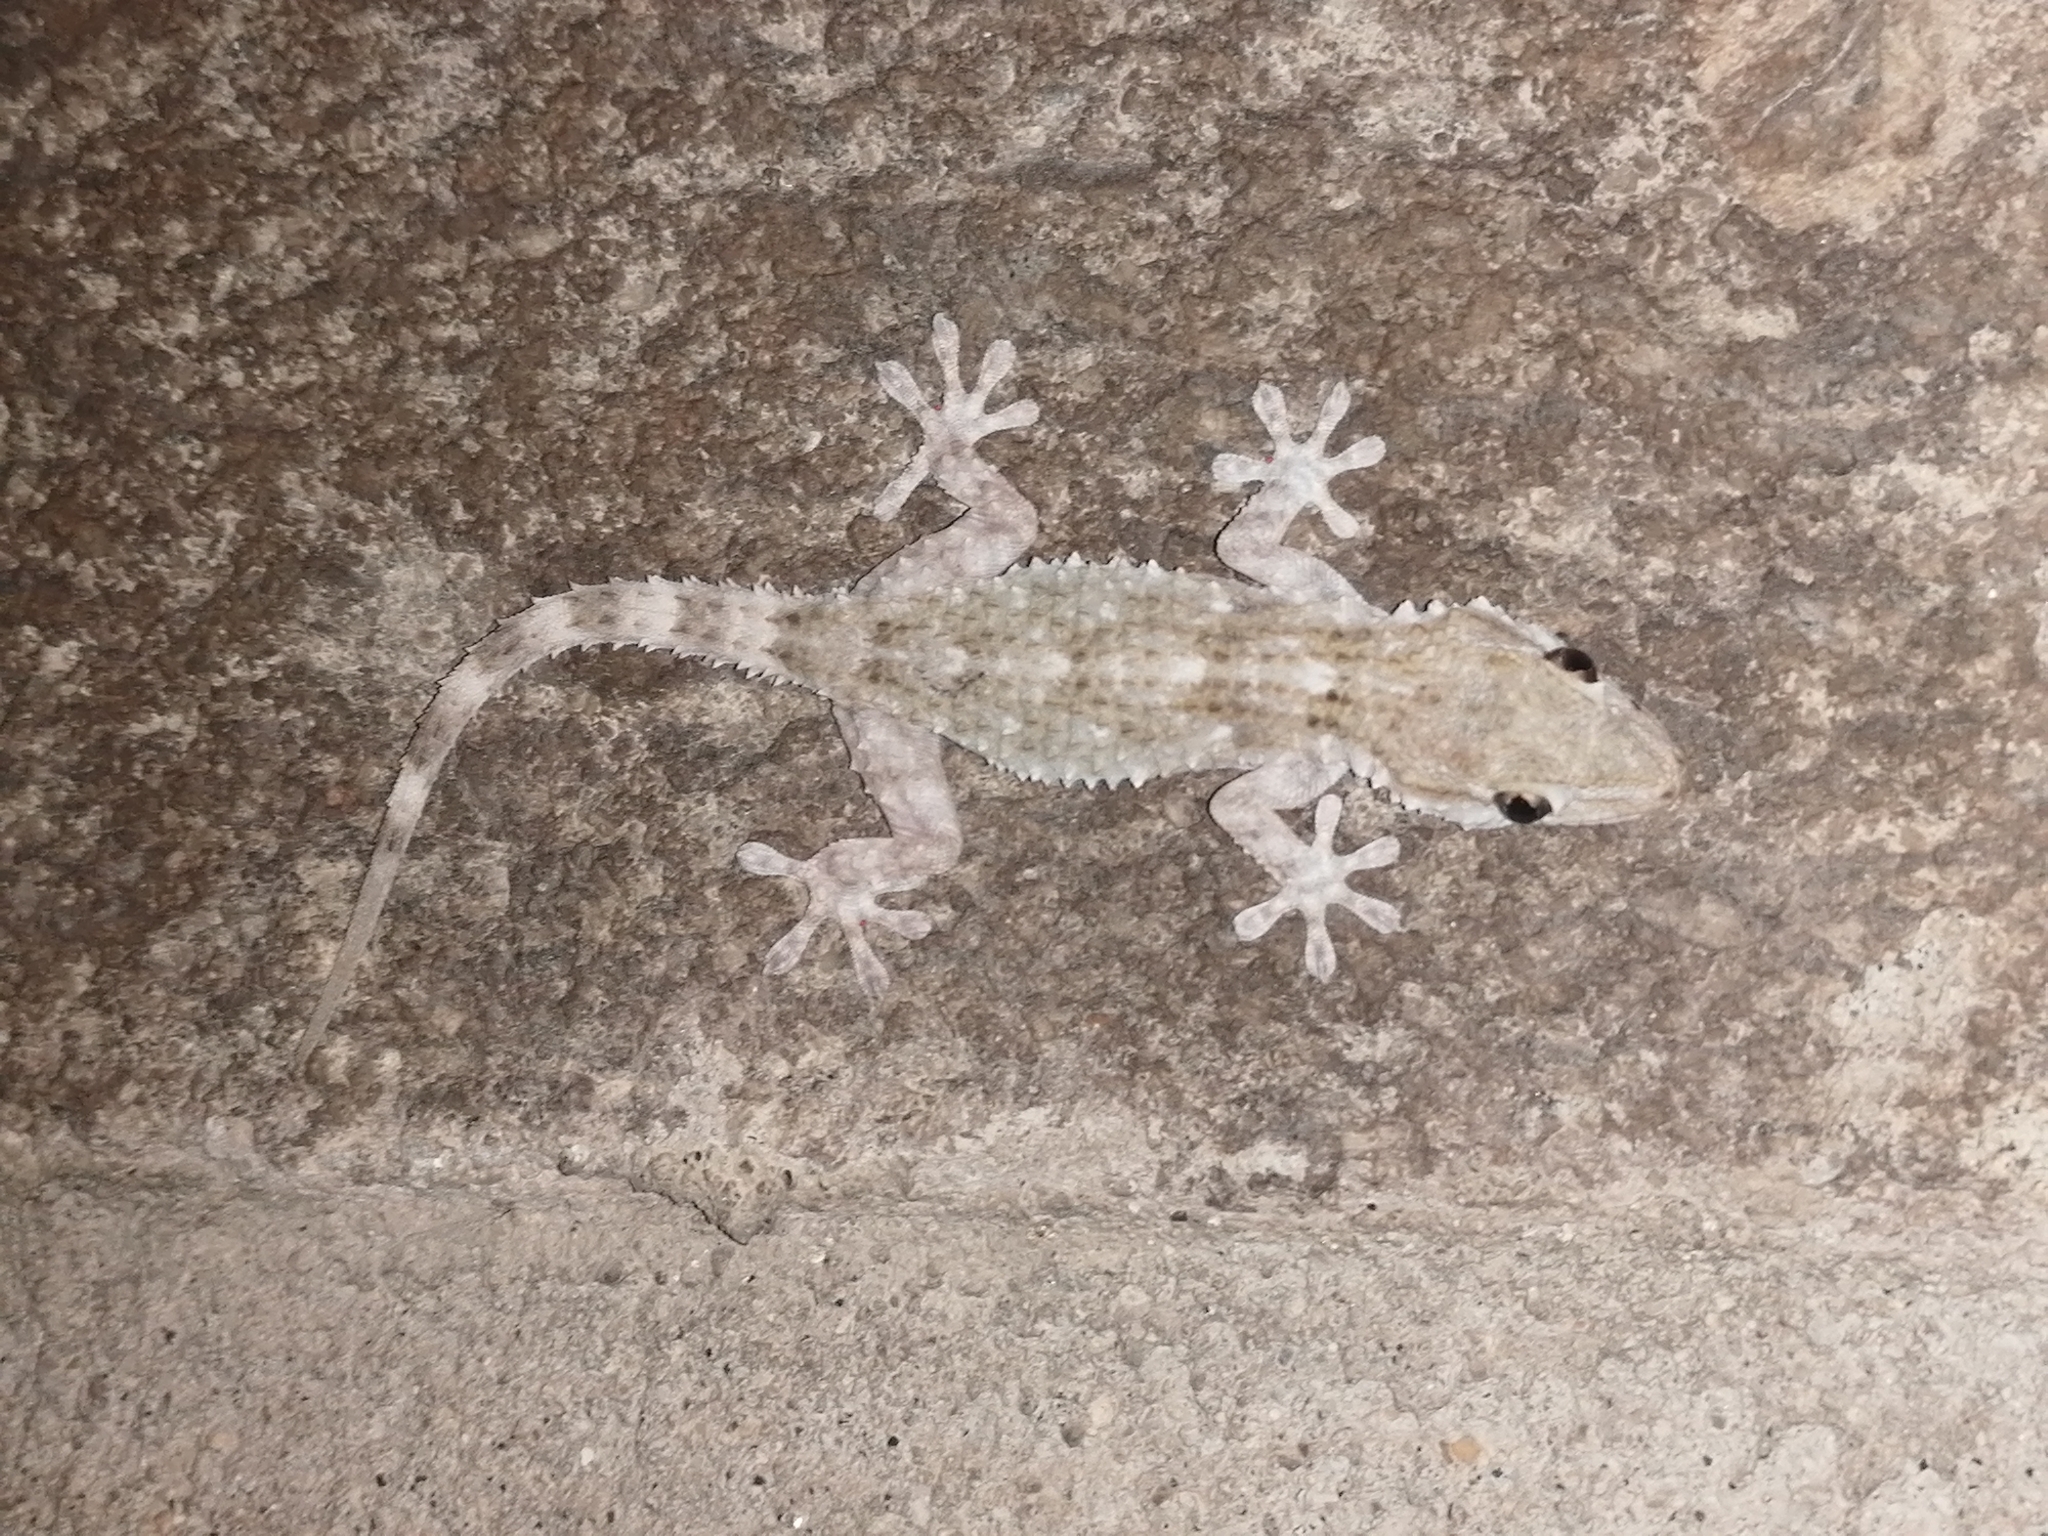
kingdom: Animalia
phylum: Chordata
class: Squamata
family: Phyllodactylidae
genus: Tarentola
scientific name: Tarentola mauritanica
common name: Moorish gecko
